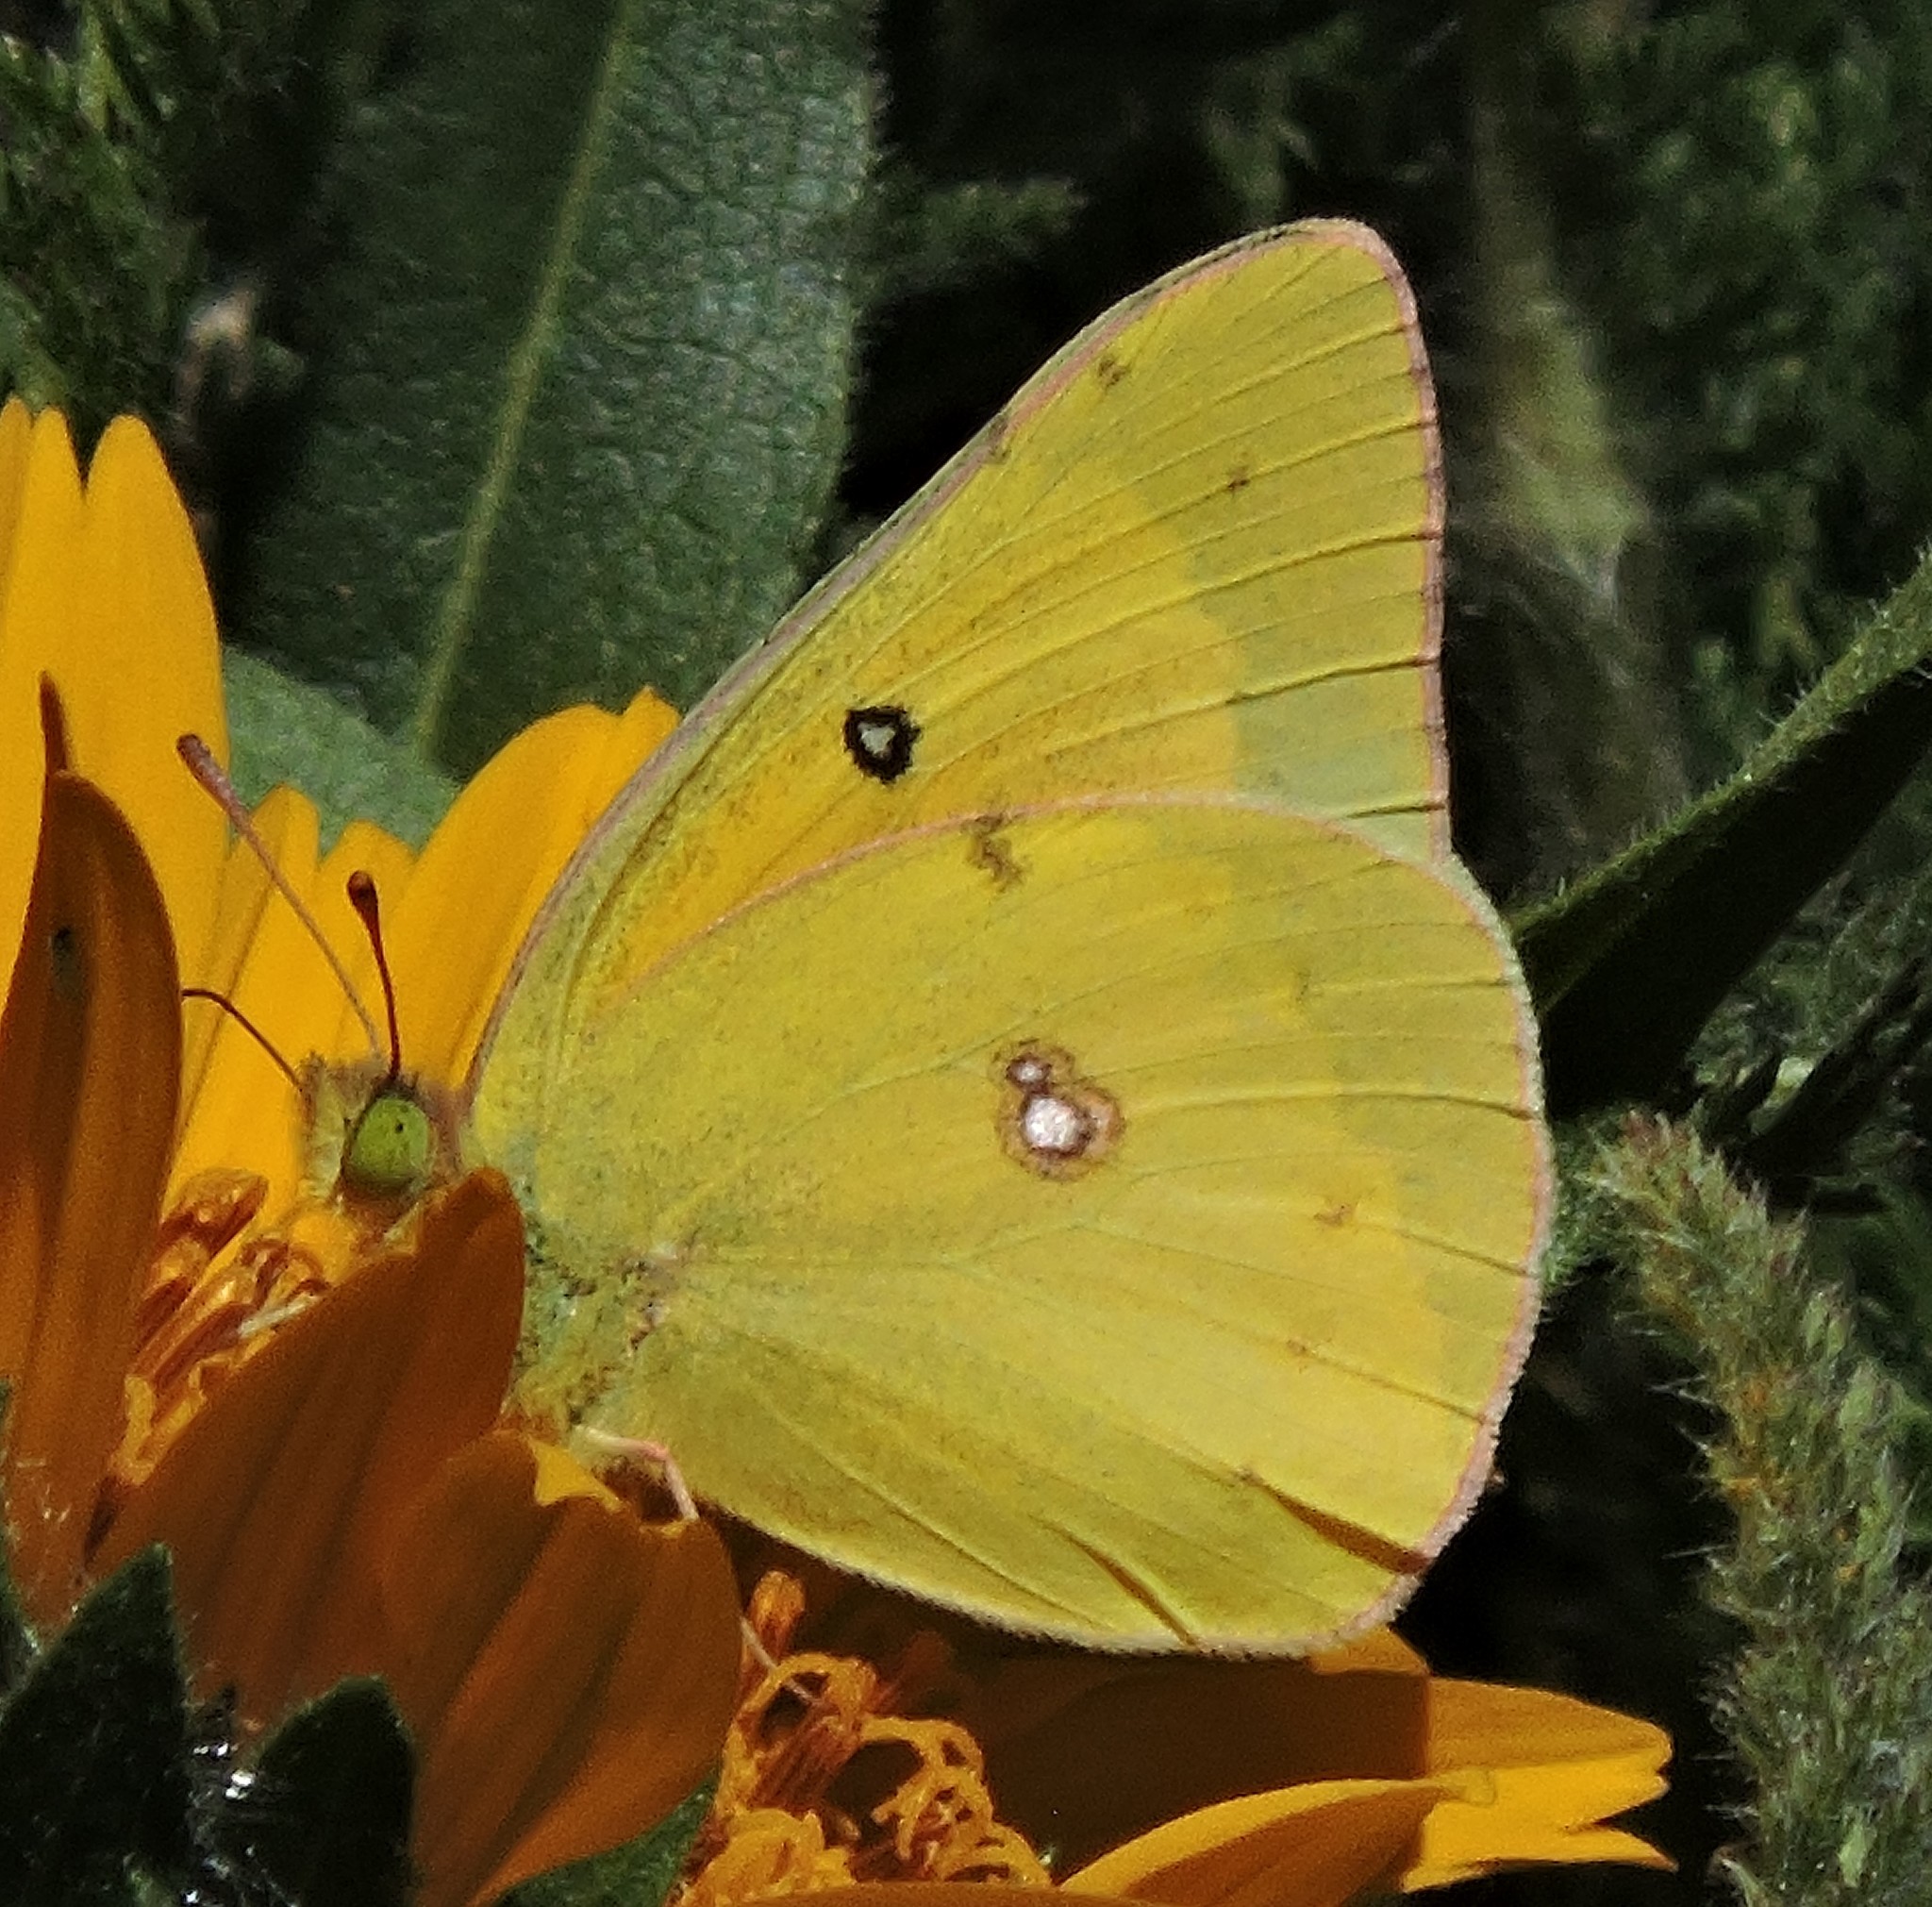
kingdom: Animalia
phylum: Arthropoda
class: Insecta
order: Lepidoptera
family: Pieridae
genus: Colias
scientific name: Colias eurytheme
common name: Alfalfa butterfly
